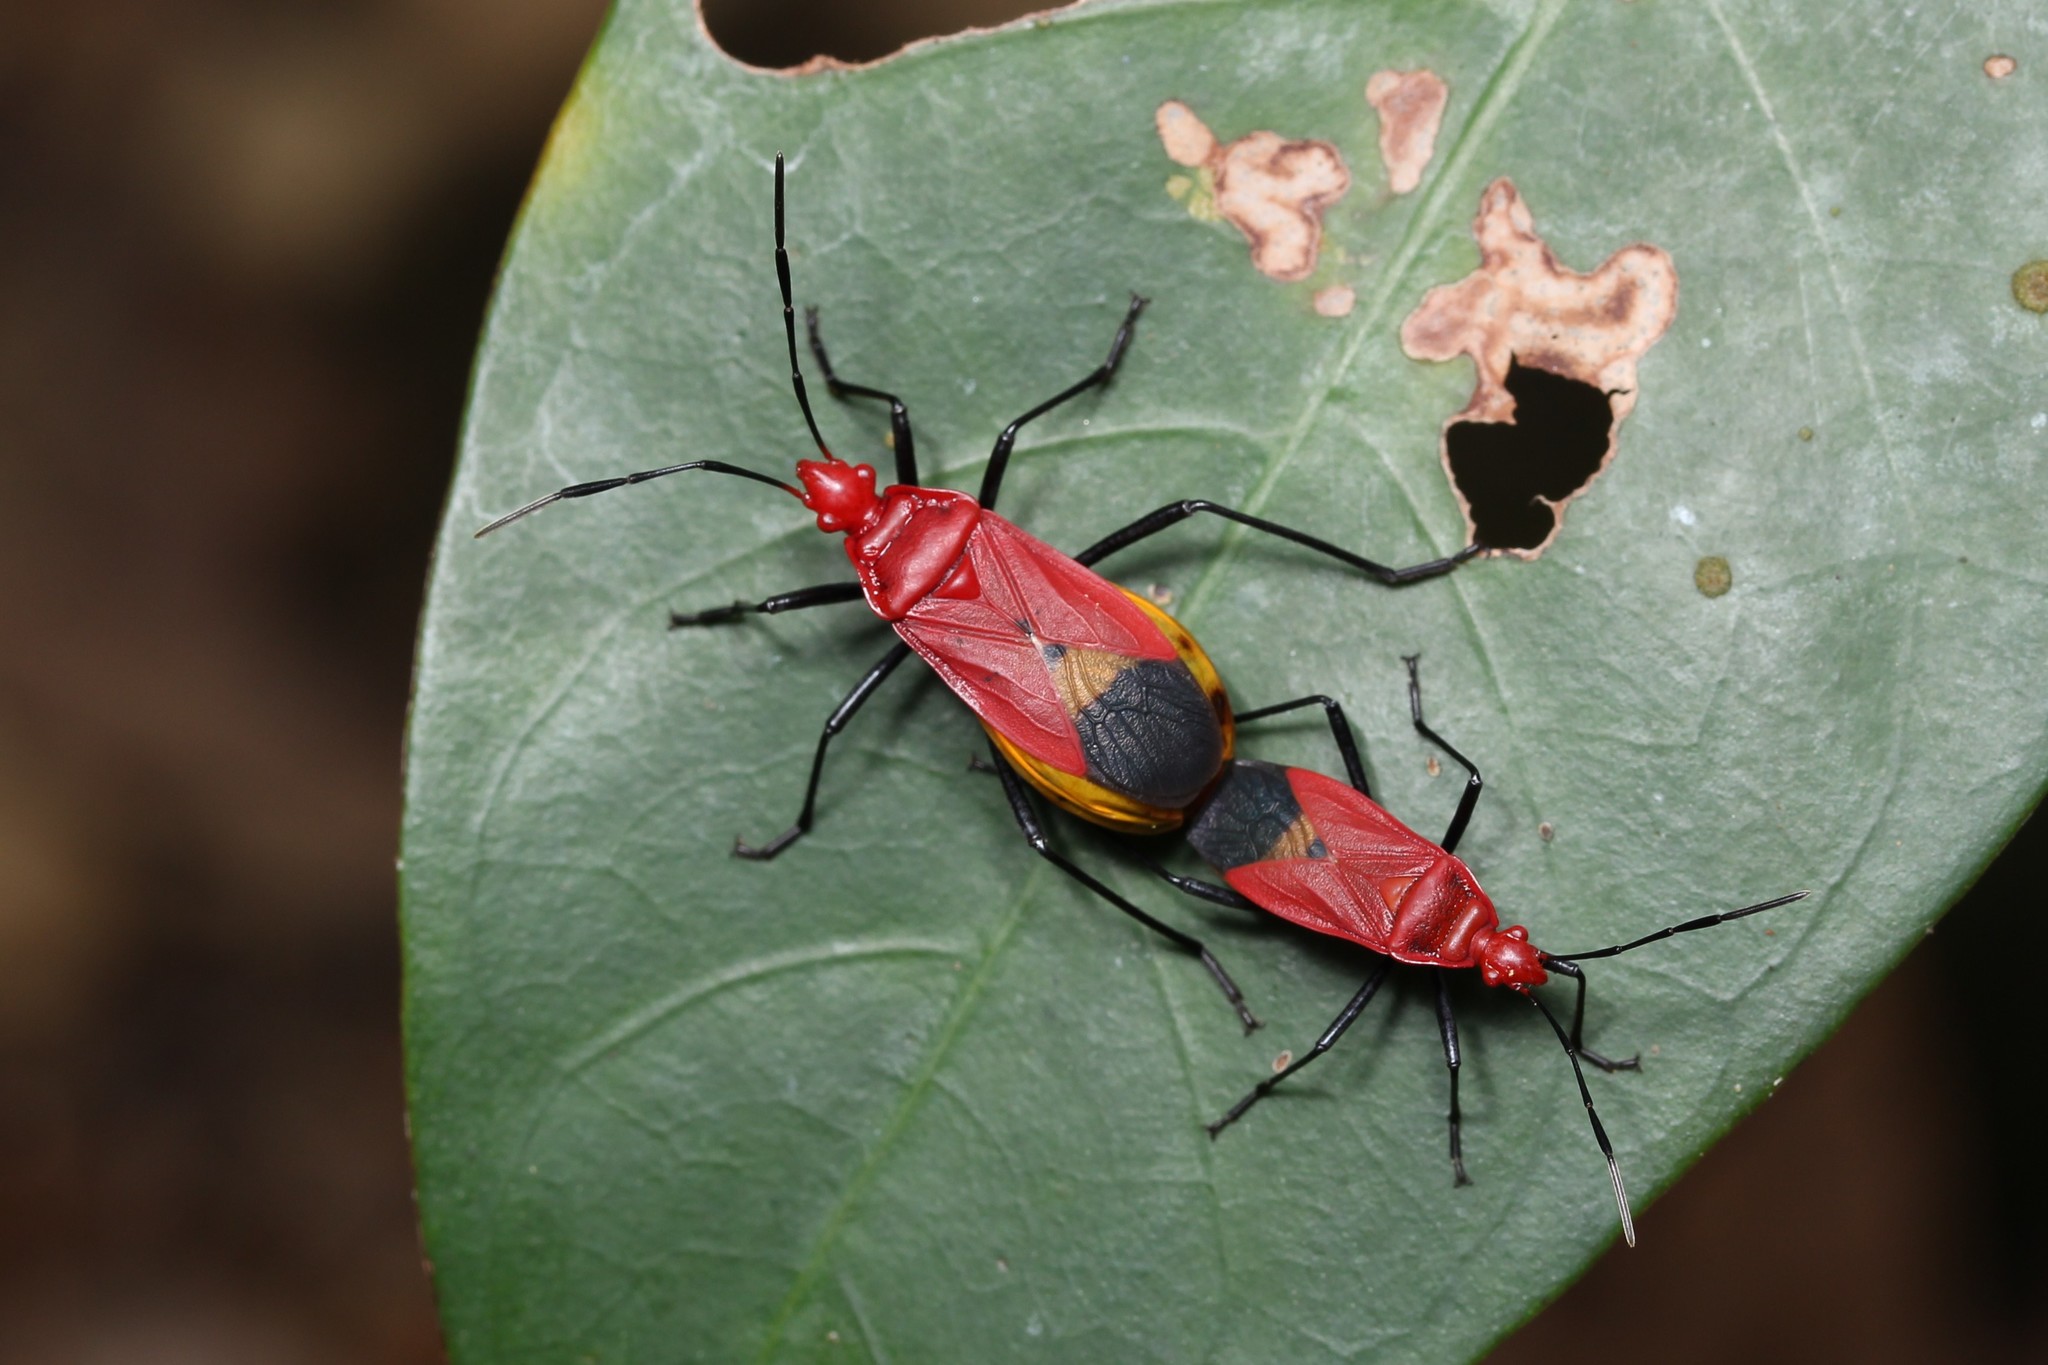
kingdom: Animalia
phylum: Arthropoda
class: Insecta
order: Hemiptera
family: Pyrrhocoridae
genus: Dindymus
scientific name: Dindymus
